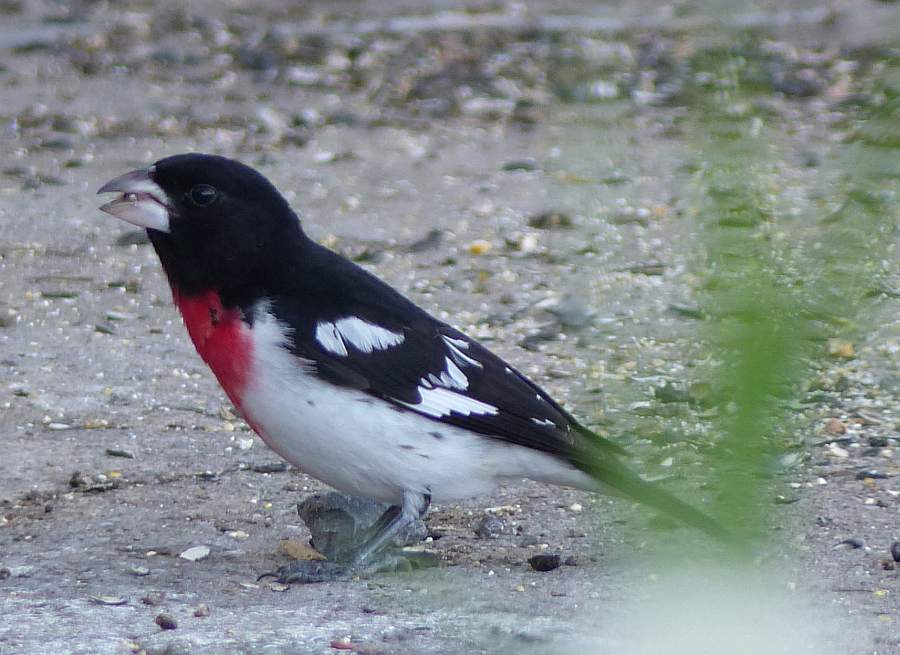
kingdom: Animalia
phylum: Chordata
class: Aves
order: Passeriformes
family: Cardinalidae
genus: Pheucticus
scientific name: Pheucticus ludovicianus
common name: Rose-breasted grosbeak
